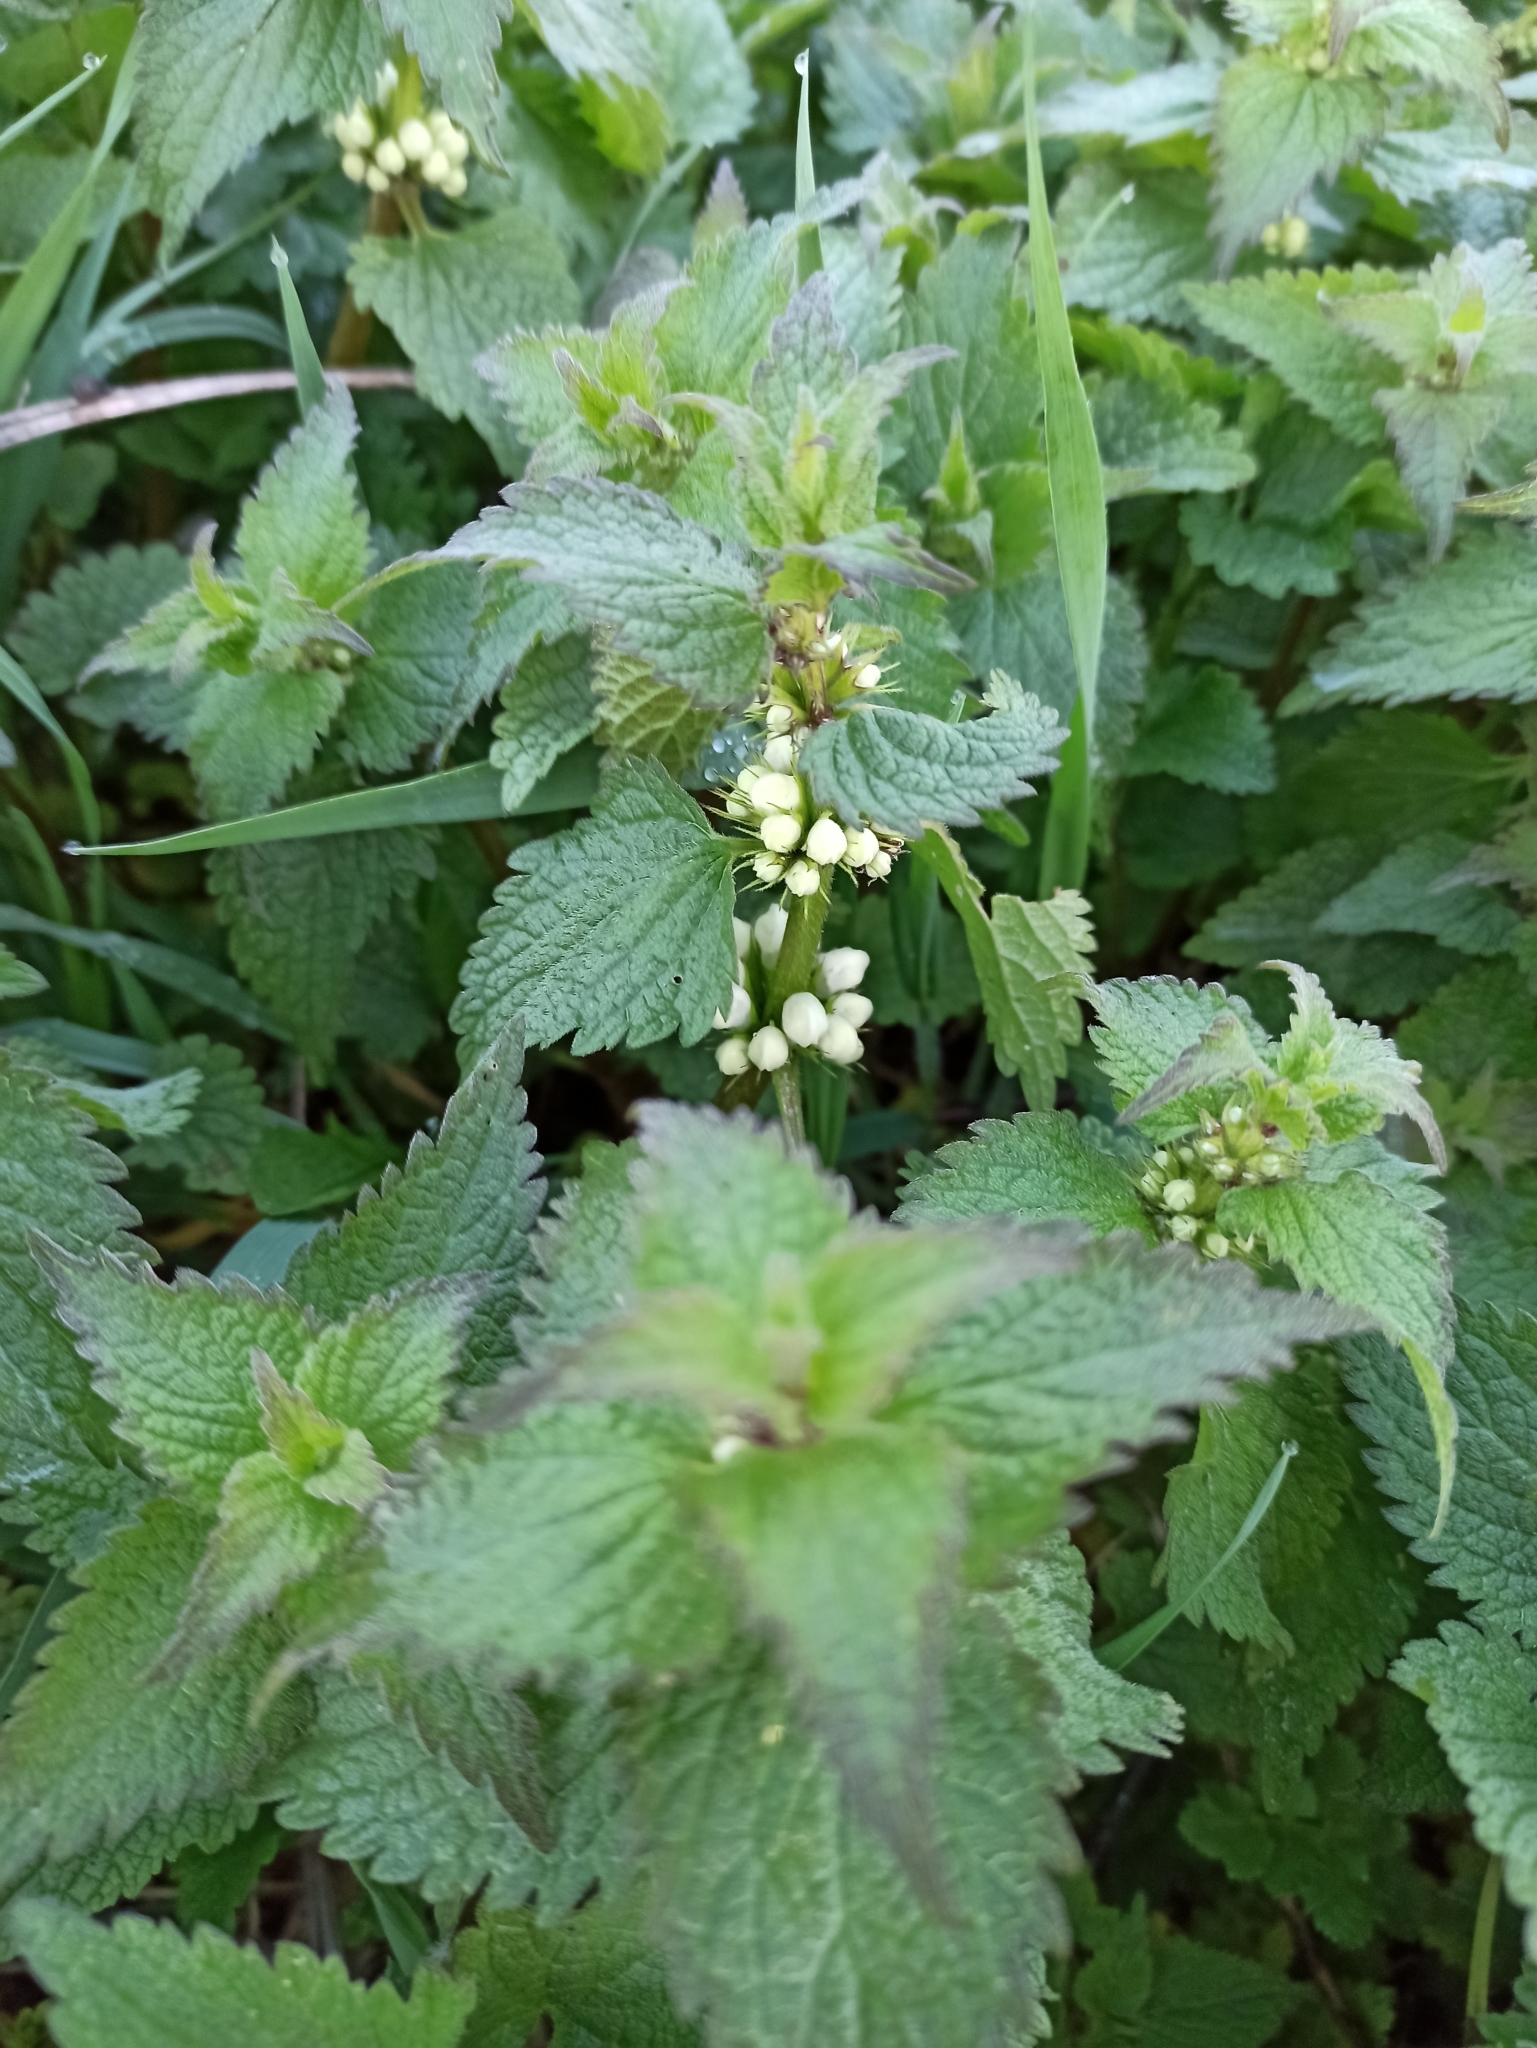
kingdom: Plantae
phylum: Tracheophyta
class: Magnoliopsida
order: Lamiales
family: Lamiaceae
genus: Lamium
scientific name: Lamium album
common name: White dead-nettle
